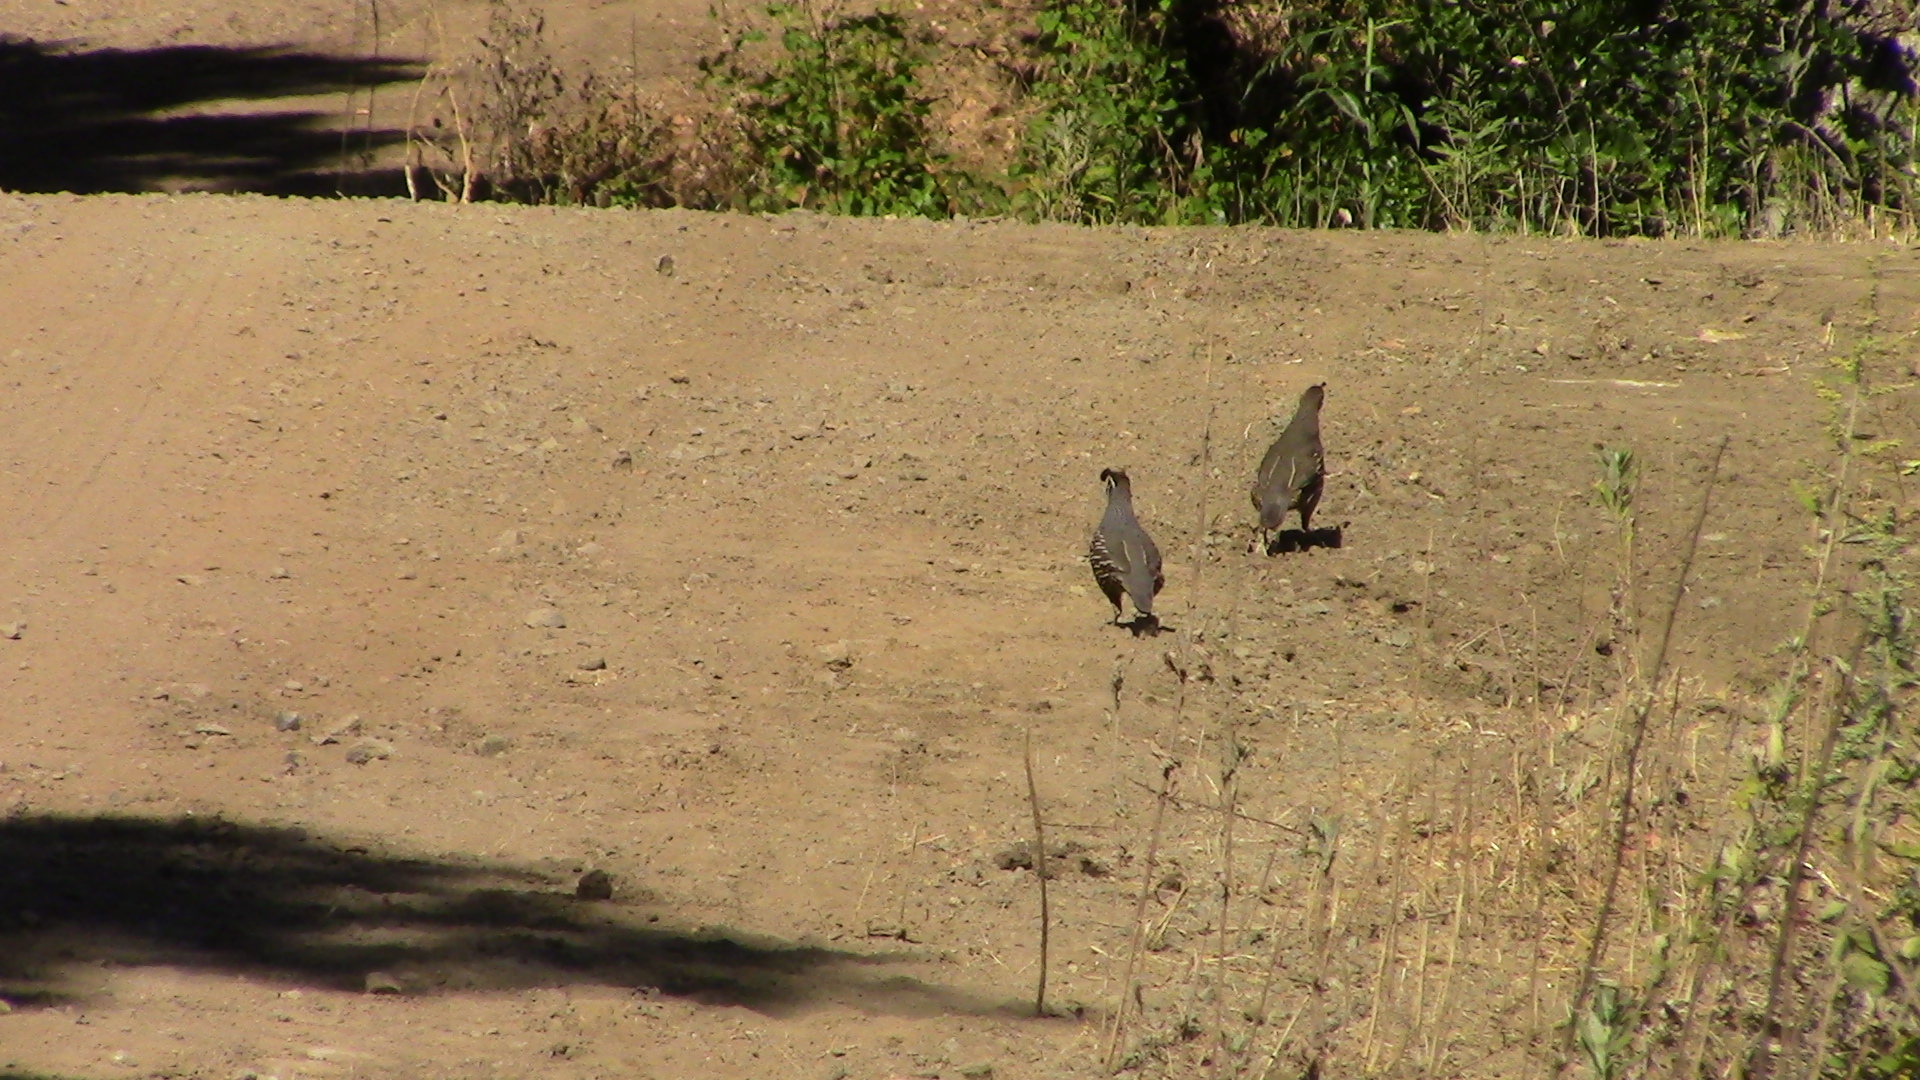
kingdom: Animalia
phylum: Chordata
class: Aves
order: Galliformes
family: Odontophoridae
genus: Callipepla
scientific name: Callipepla californica
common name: California quail
